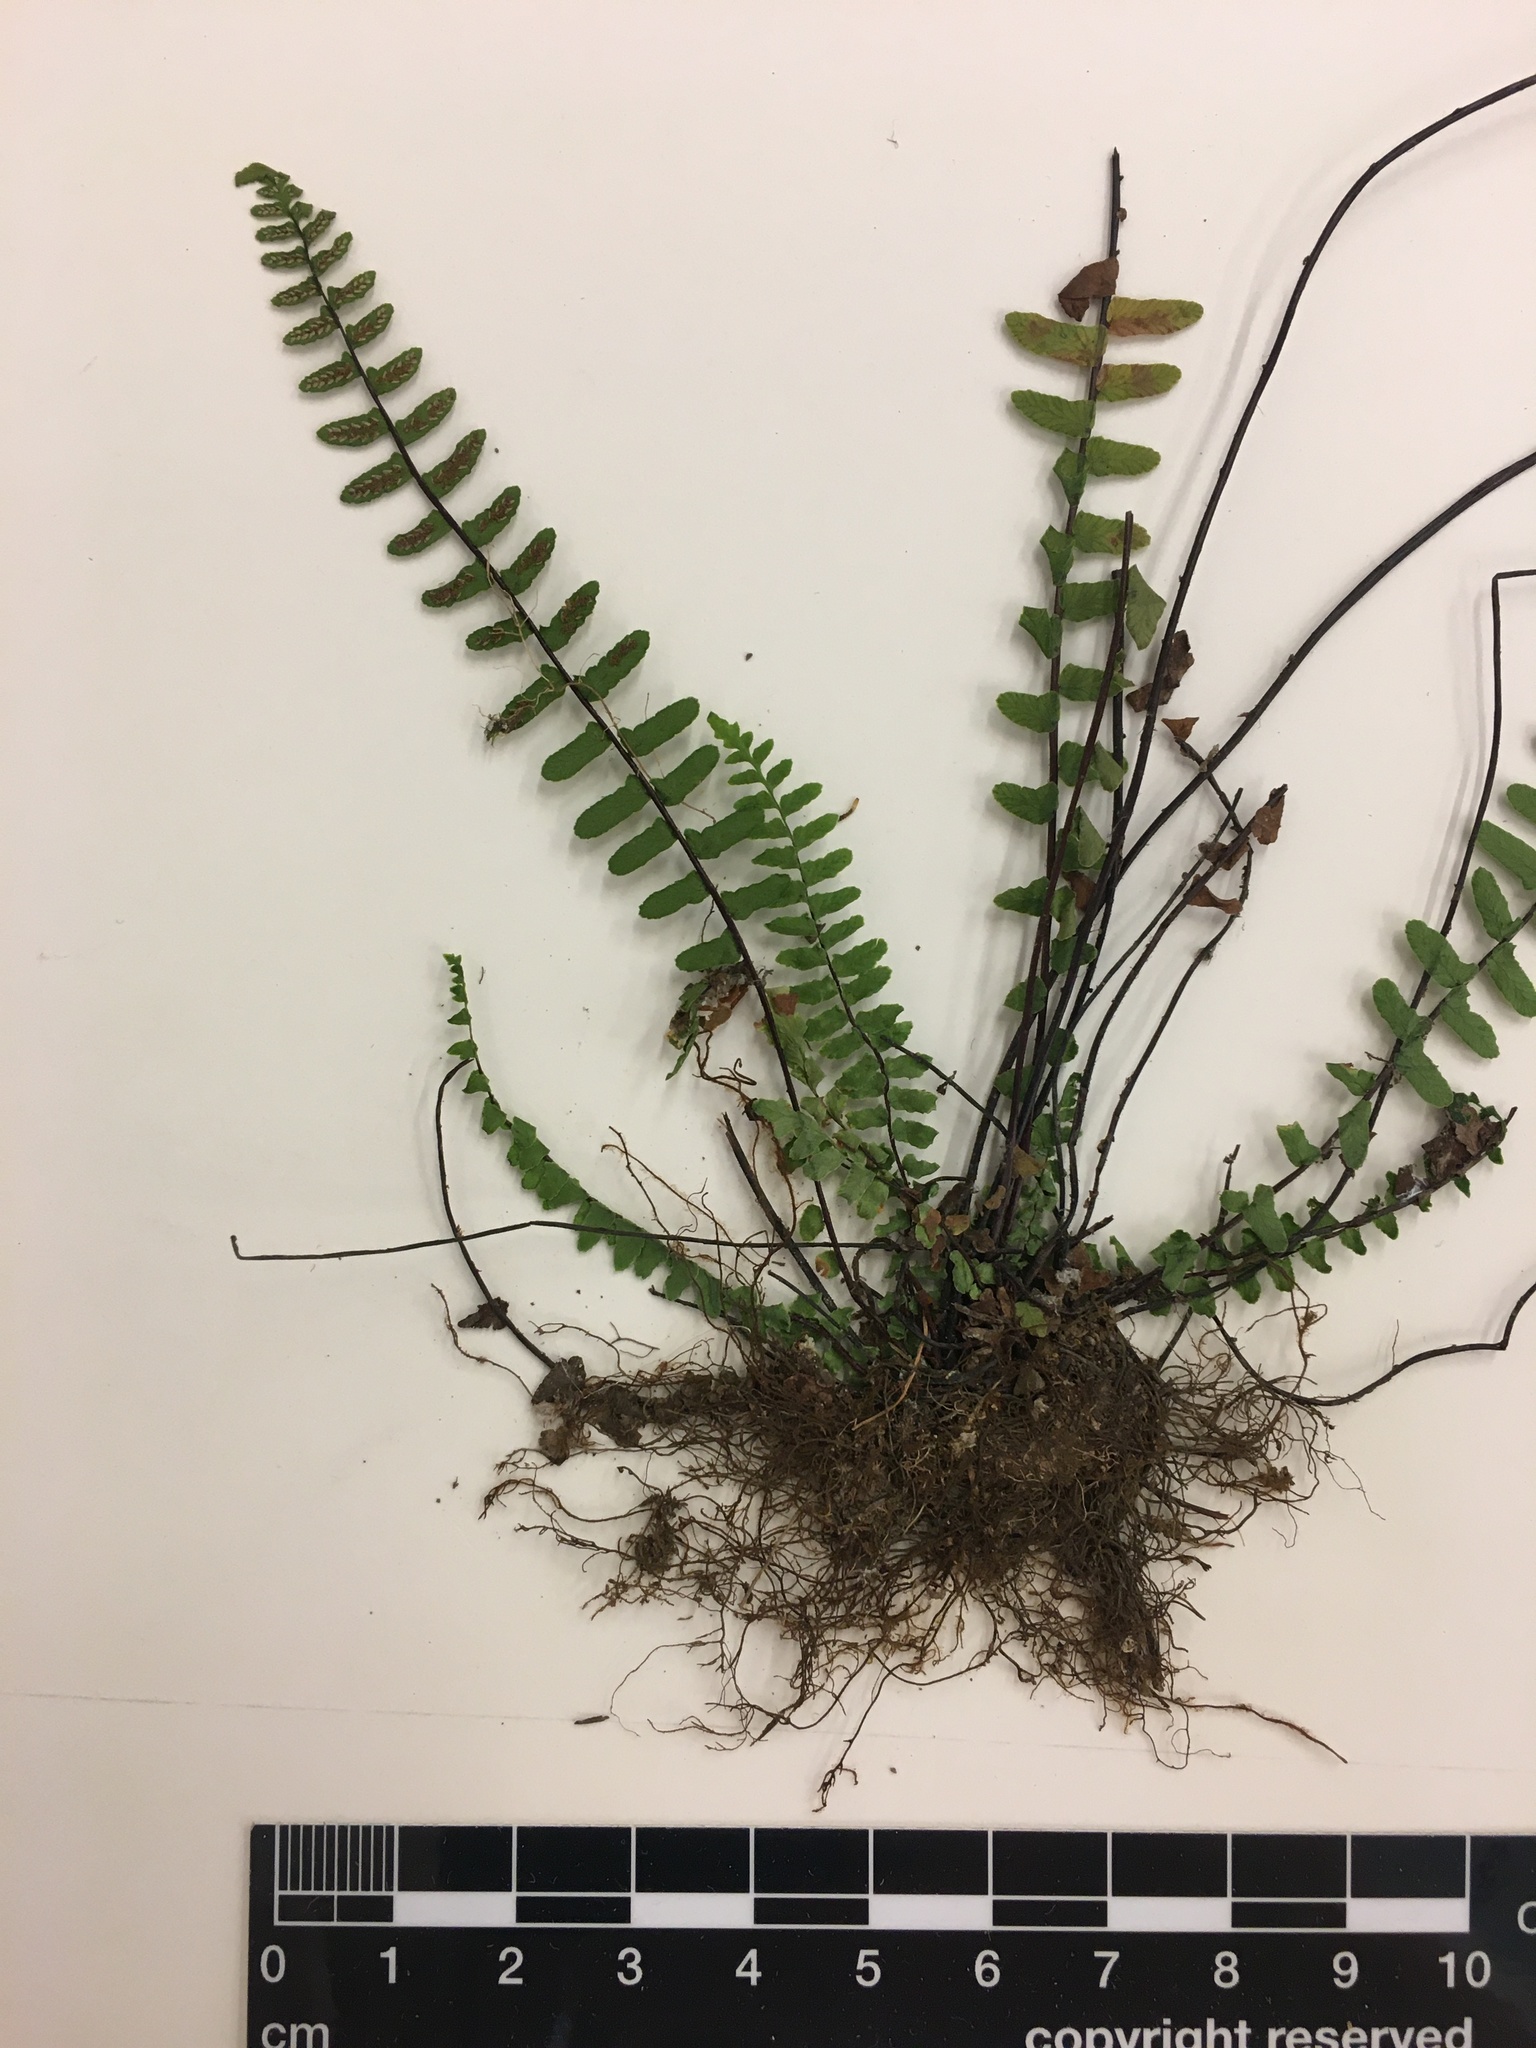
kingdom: Plantae
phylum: Tracheophyta
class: Polypodiopsida
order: Polypodiales
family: Aspleniaceae
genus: Asplenium
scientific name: Asplenium platyneuron
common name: Ebony spleenwort
